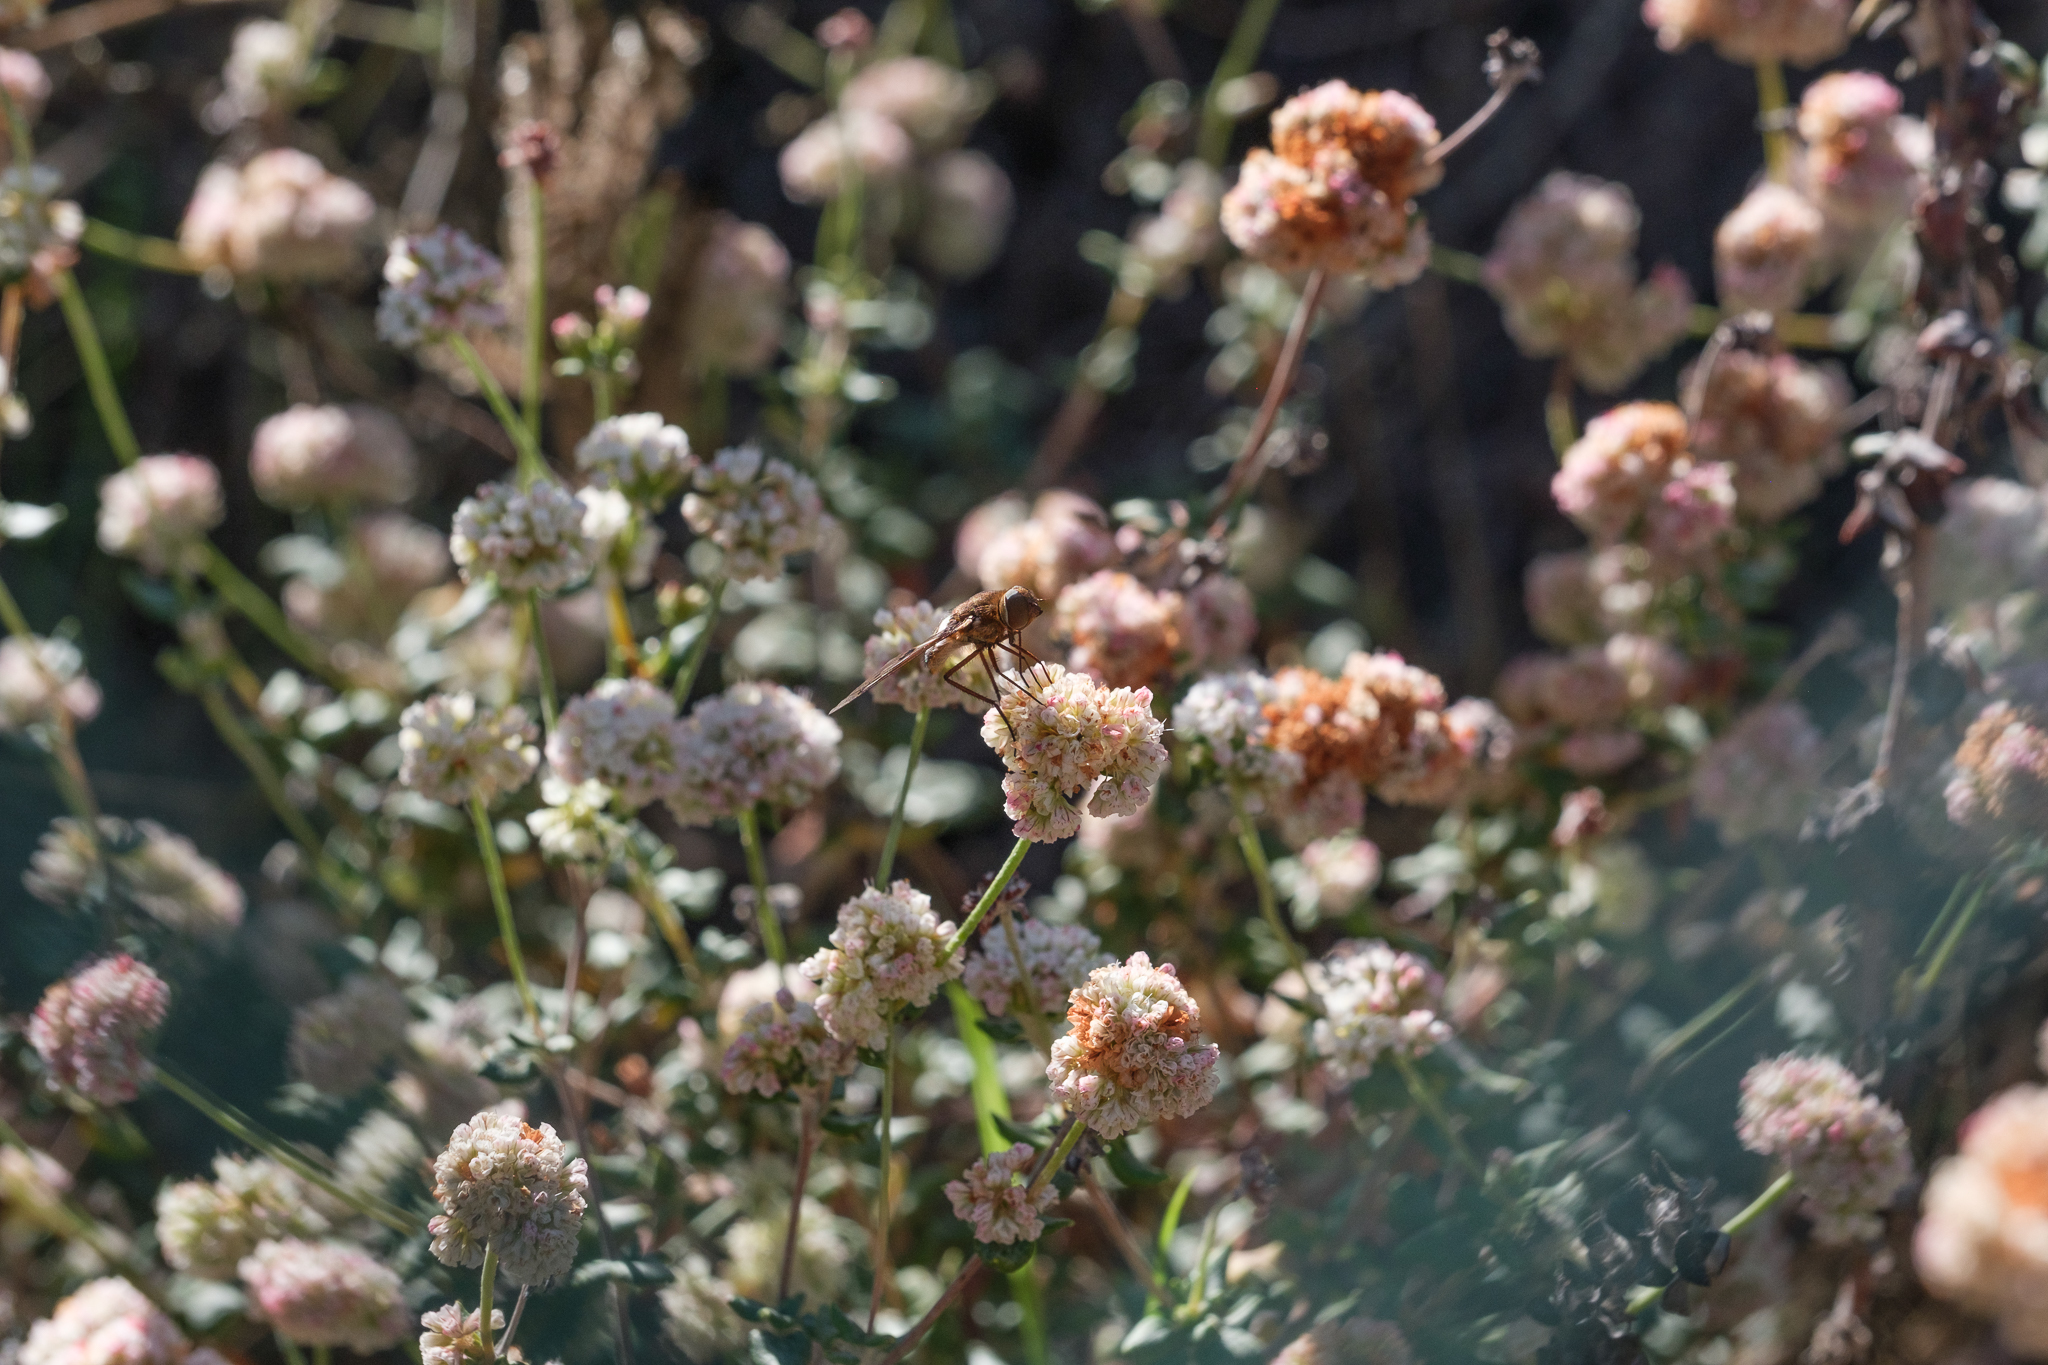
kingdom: Animalia
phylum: Arthropoda
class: Insecta
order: Diptera
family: Bombyliidae
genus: Nyia
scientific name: Nyia gazophylax
